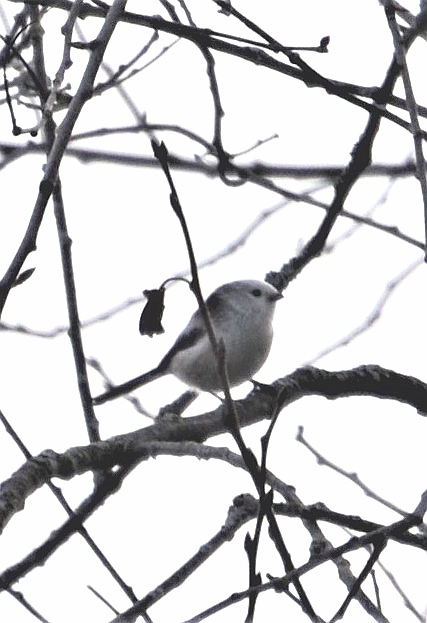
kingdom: Animalia
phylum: Chordata
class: Aves
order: Passeriformes
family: Aegithalidae
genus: Aegithalos
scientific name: Aegithalos caudatus
